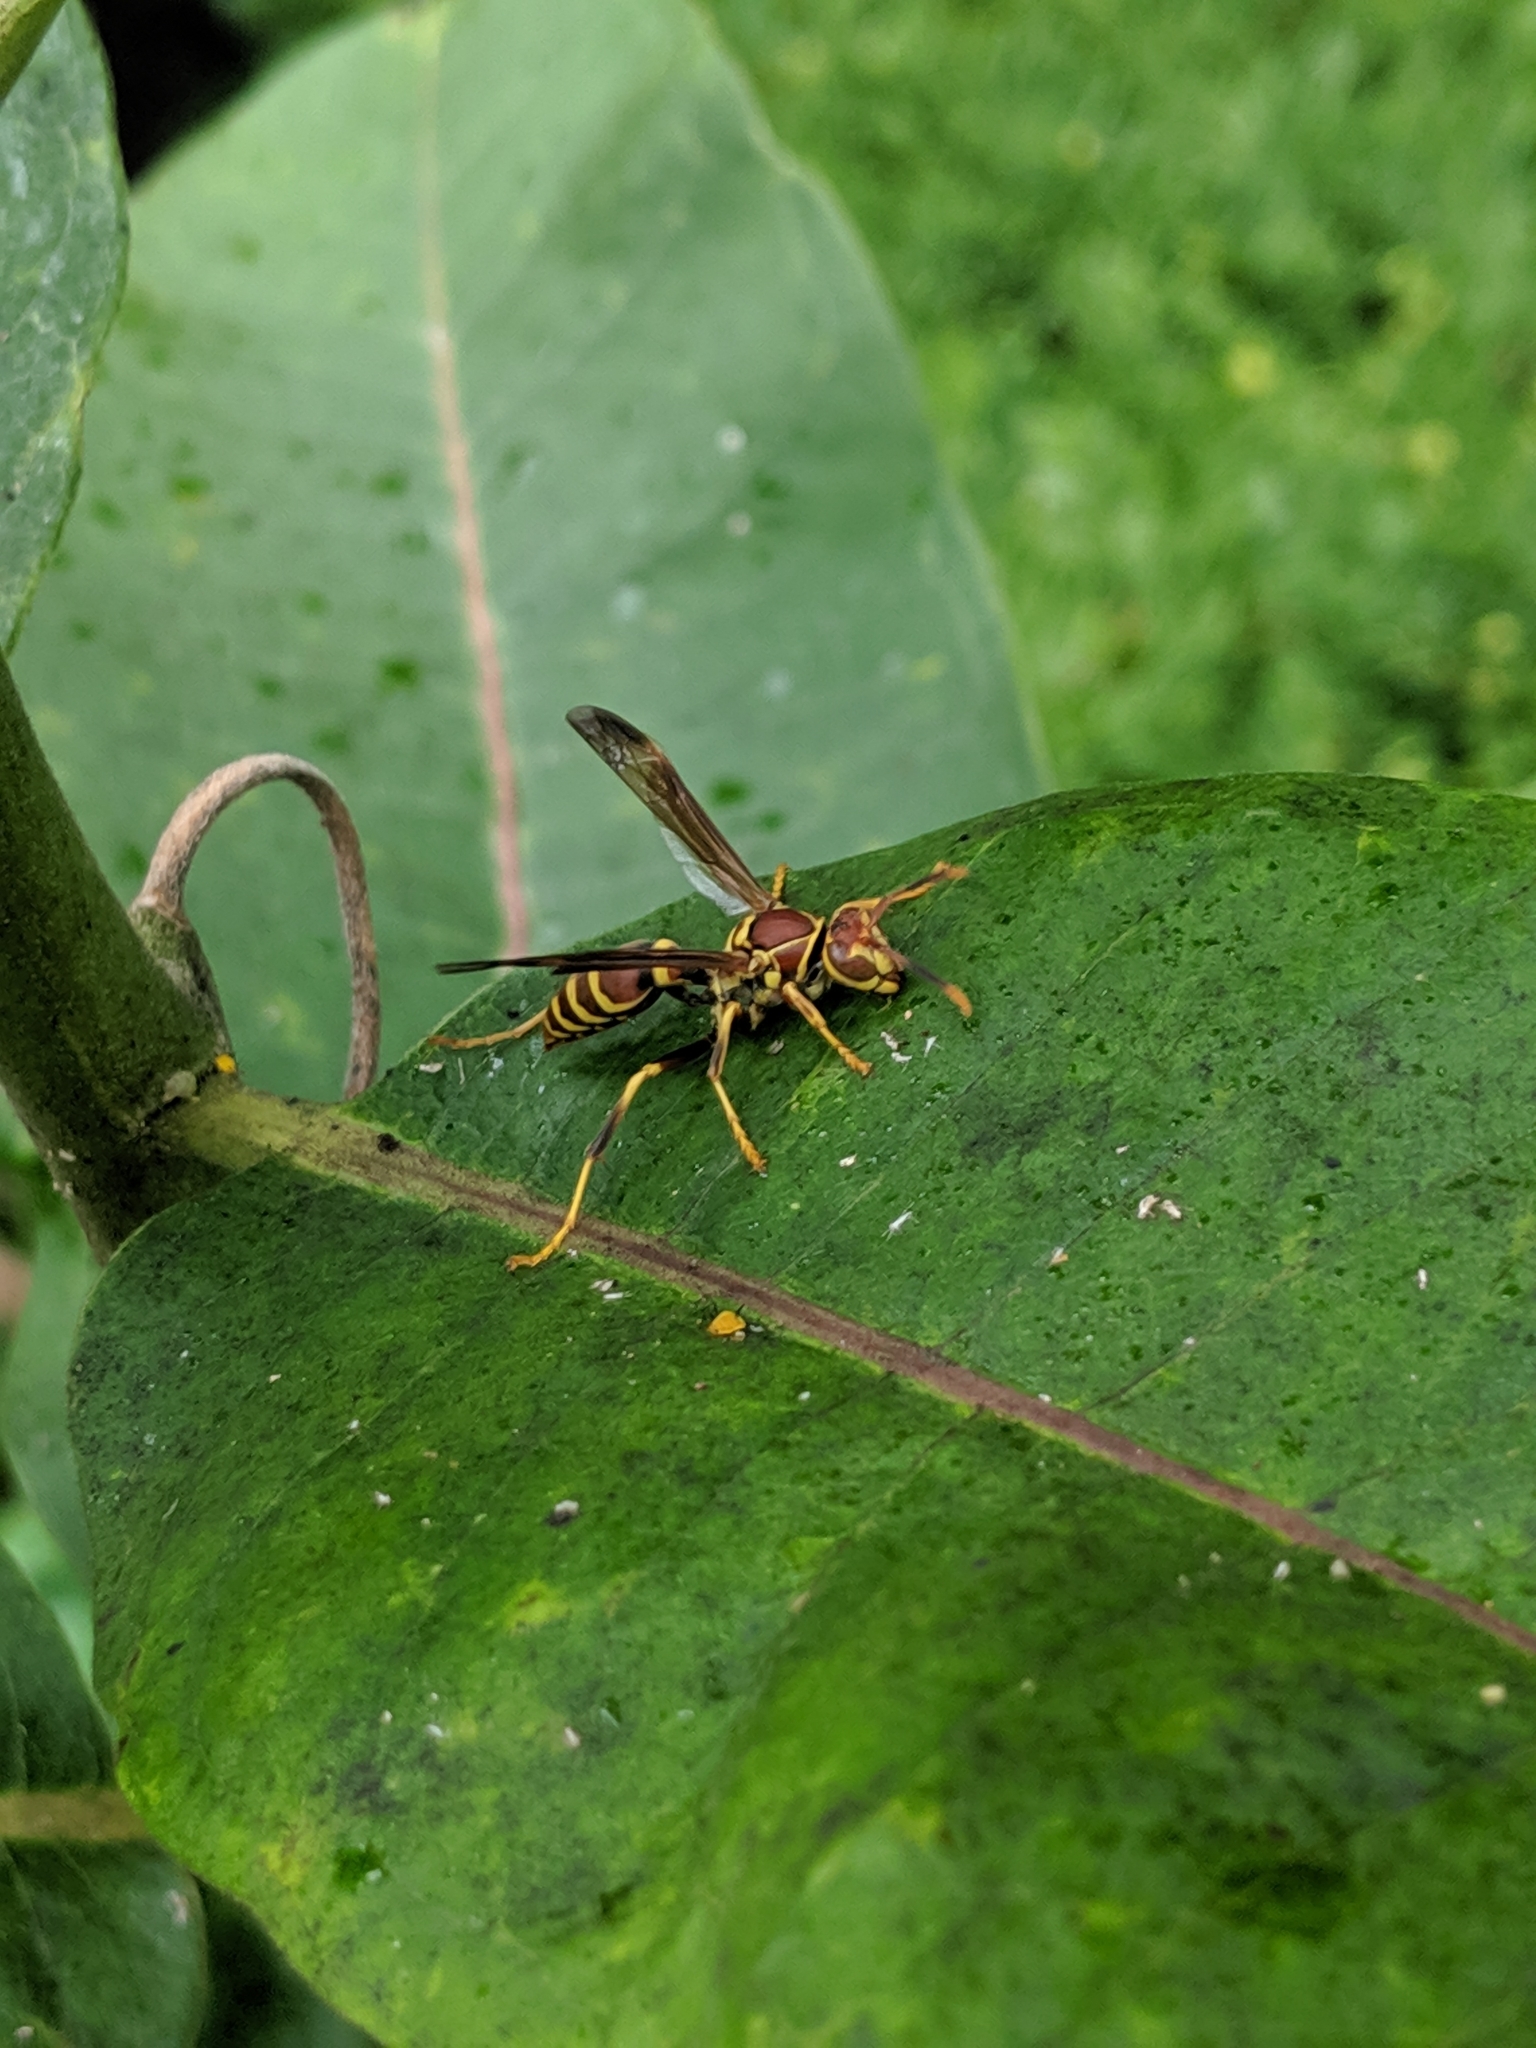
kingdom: Animalia
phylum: Arthropoda
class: Insecta
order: Hymenoptera
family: Eumenidae
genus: Polistes
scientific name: Polistes exclamans
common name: Paper wasp
